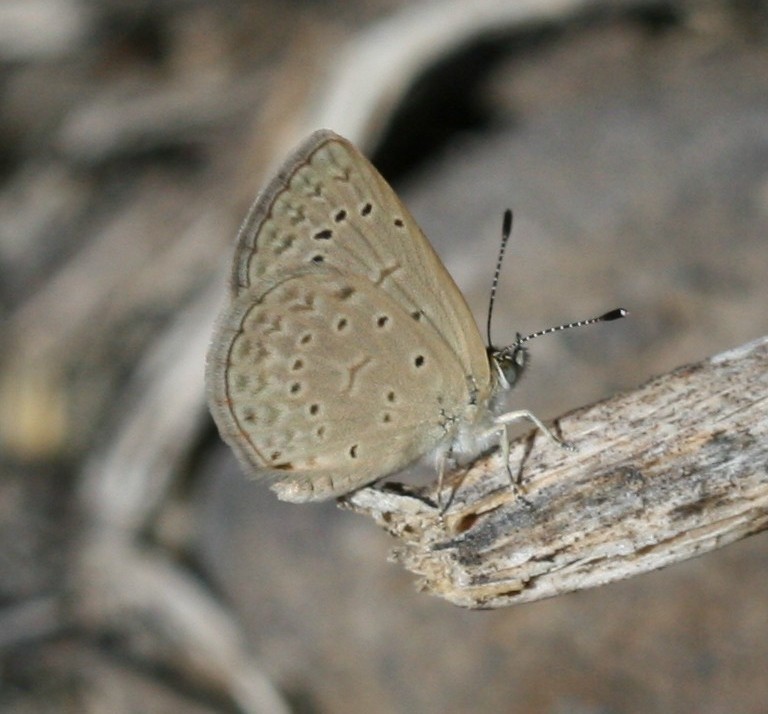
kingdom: Animalia
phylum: Arthropoda
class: Insecta
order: Lepidoptera
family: Lycaenidae
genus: Zizeeria
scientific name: Zizeeria knysna
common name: African grass blue
